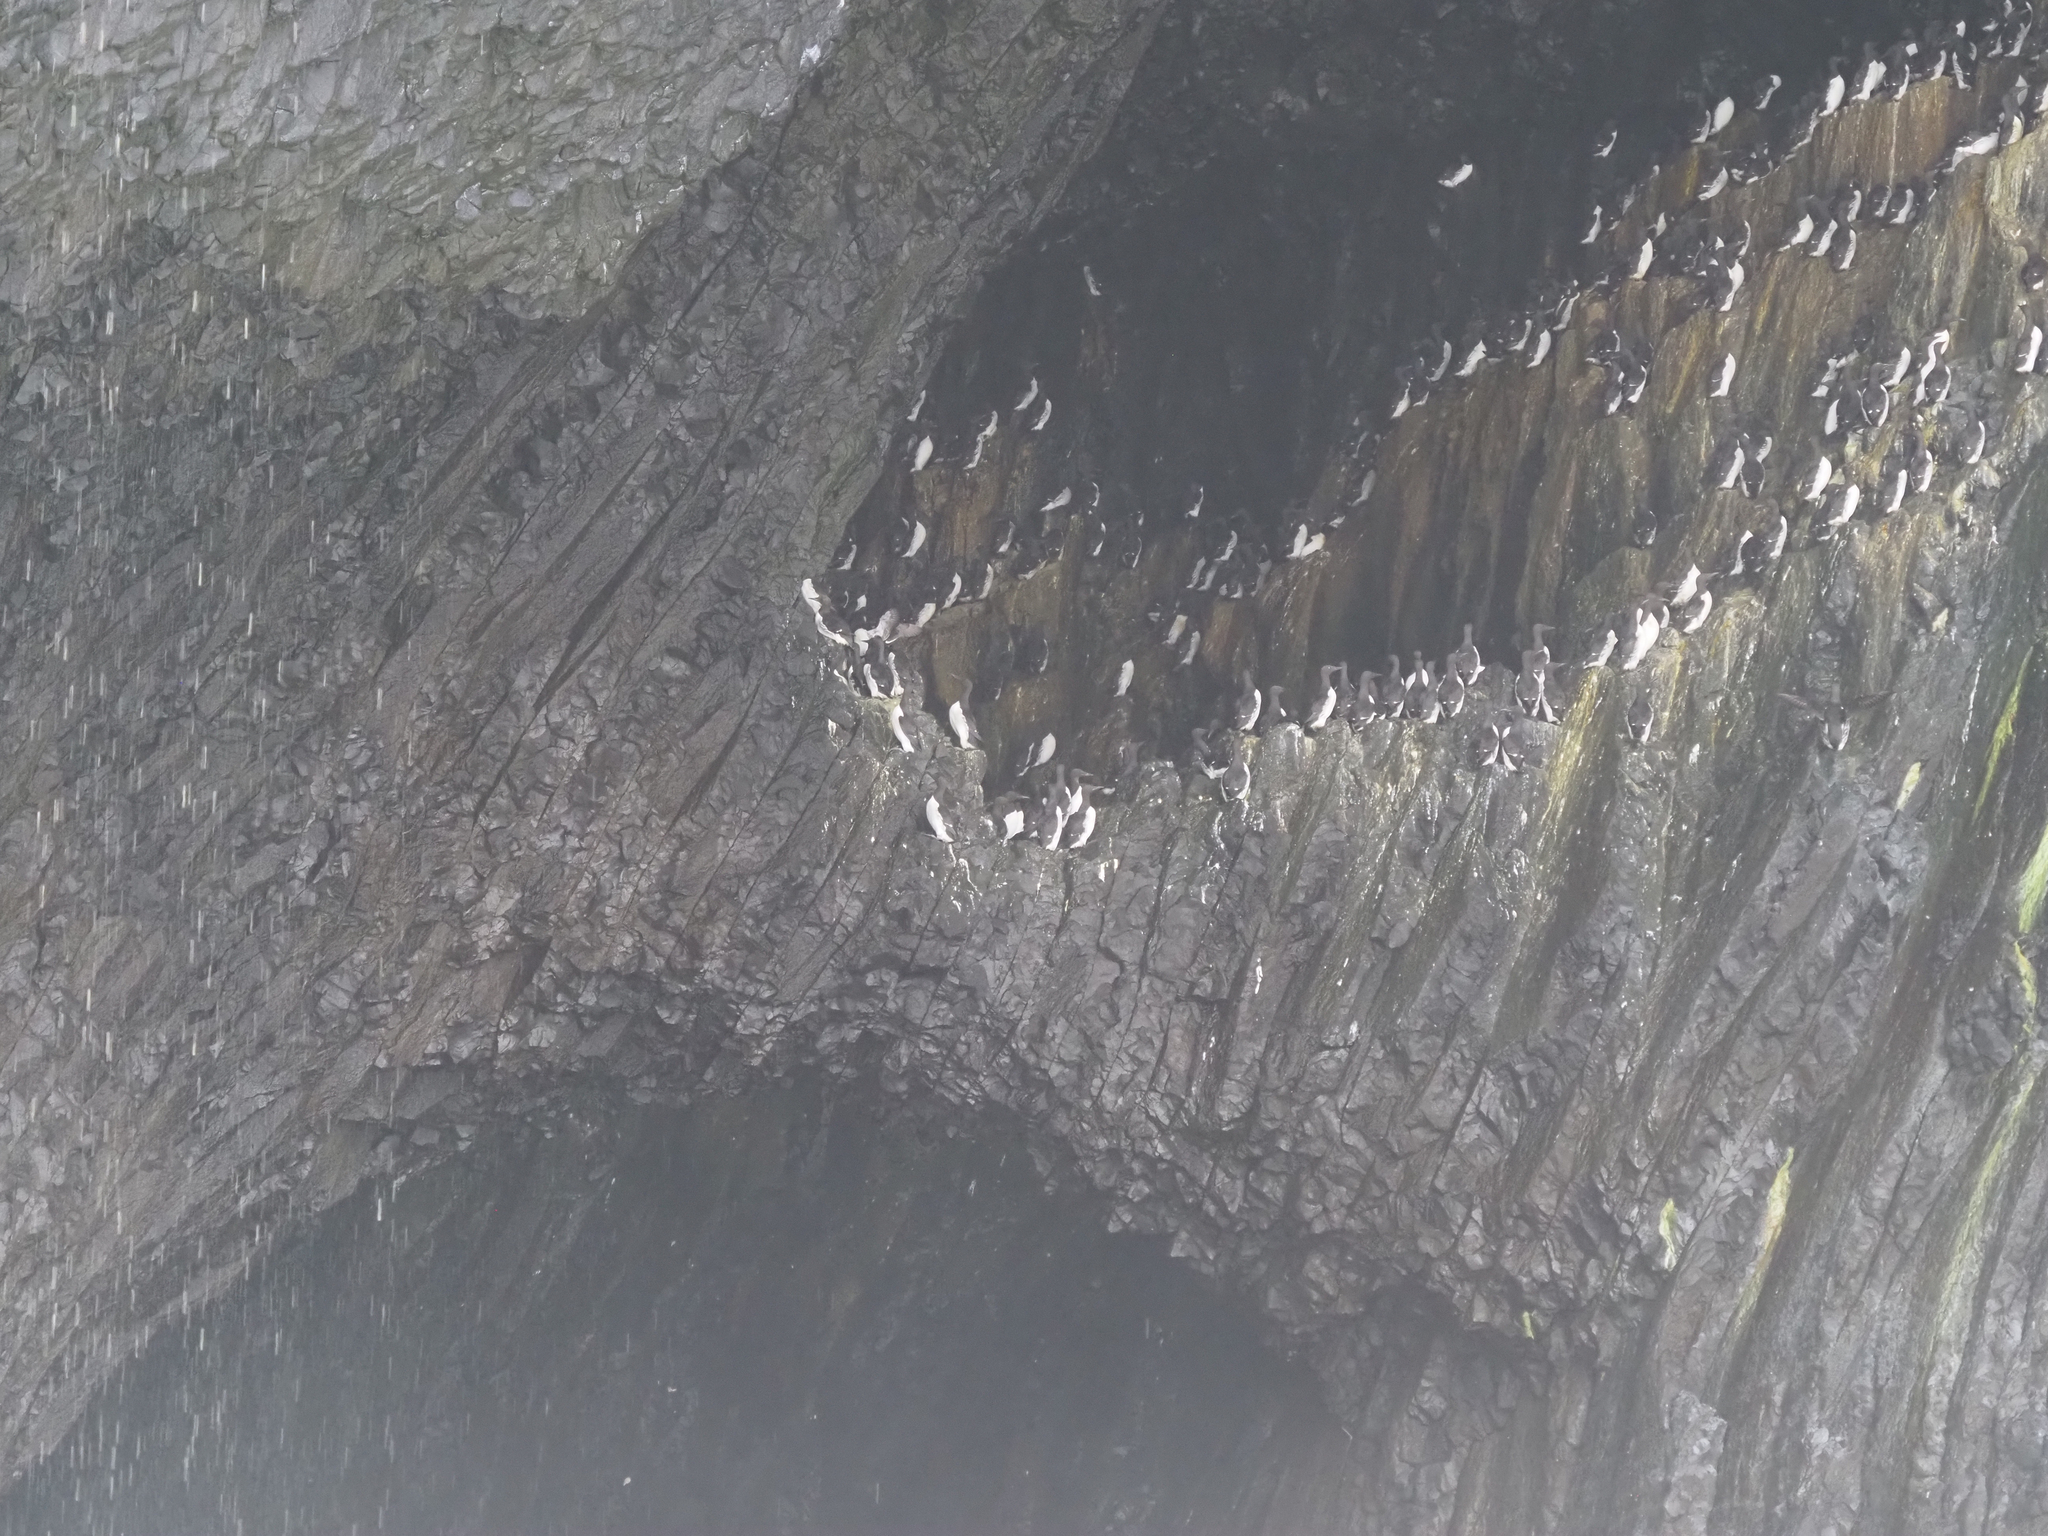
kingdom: Animalia
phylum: Chordata
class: Aves
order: Charadriiformes
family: Alcidae
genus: Uria
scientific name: Uria aalge
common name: Common murre
